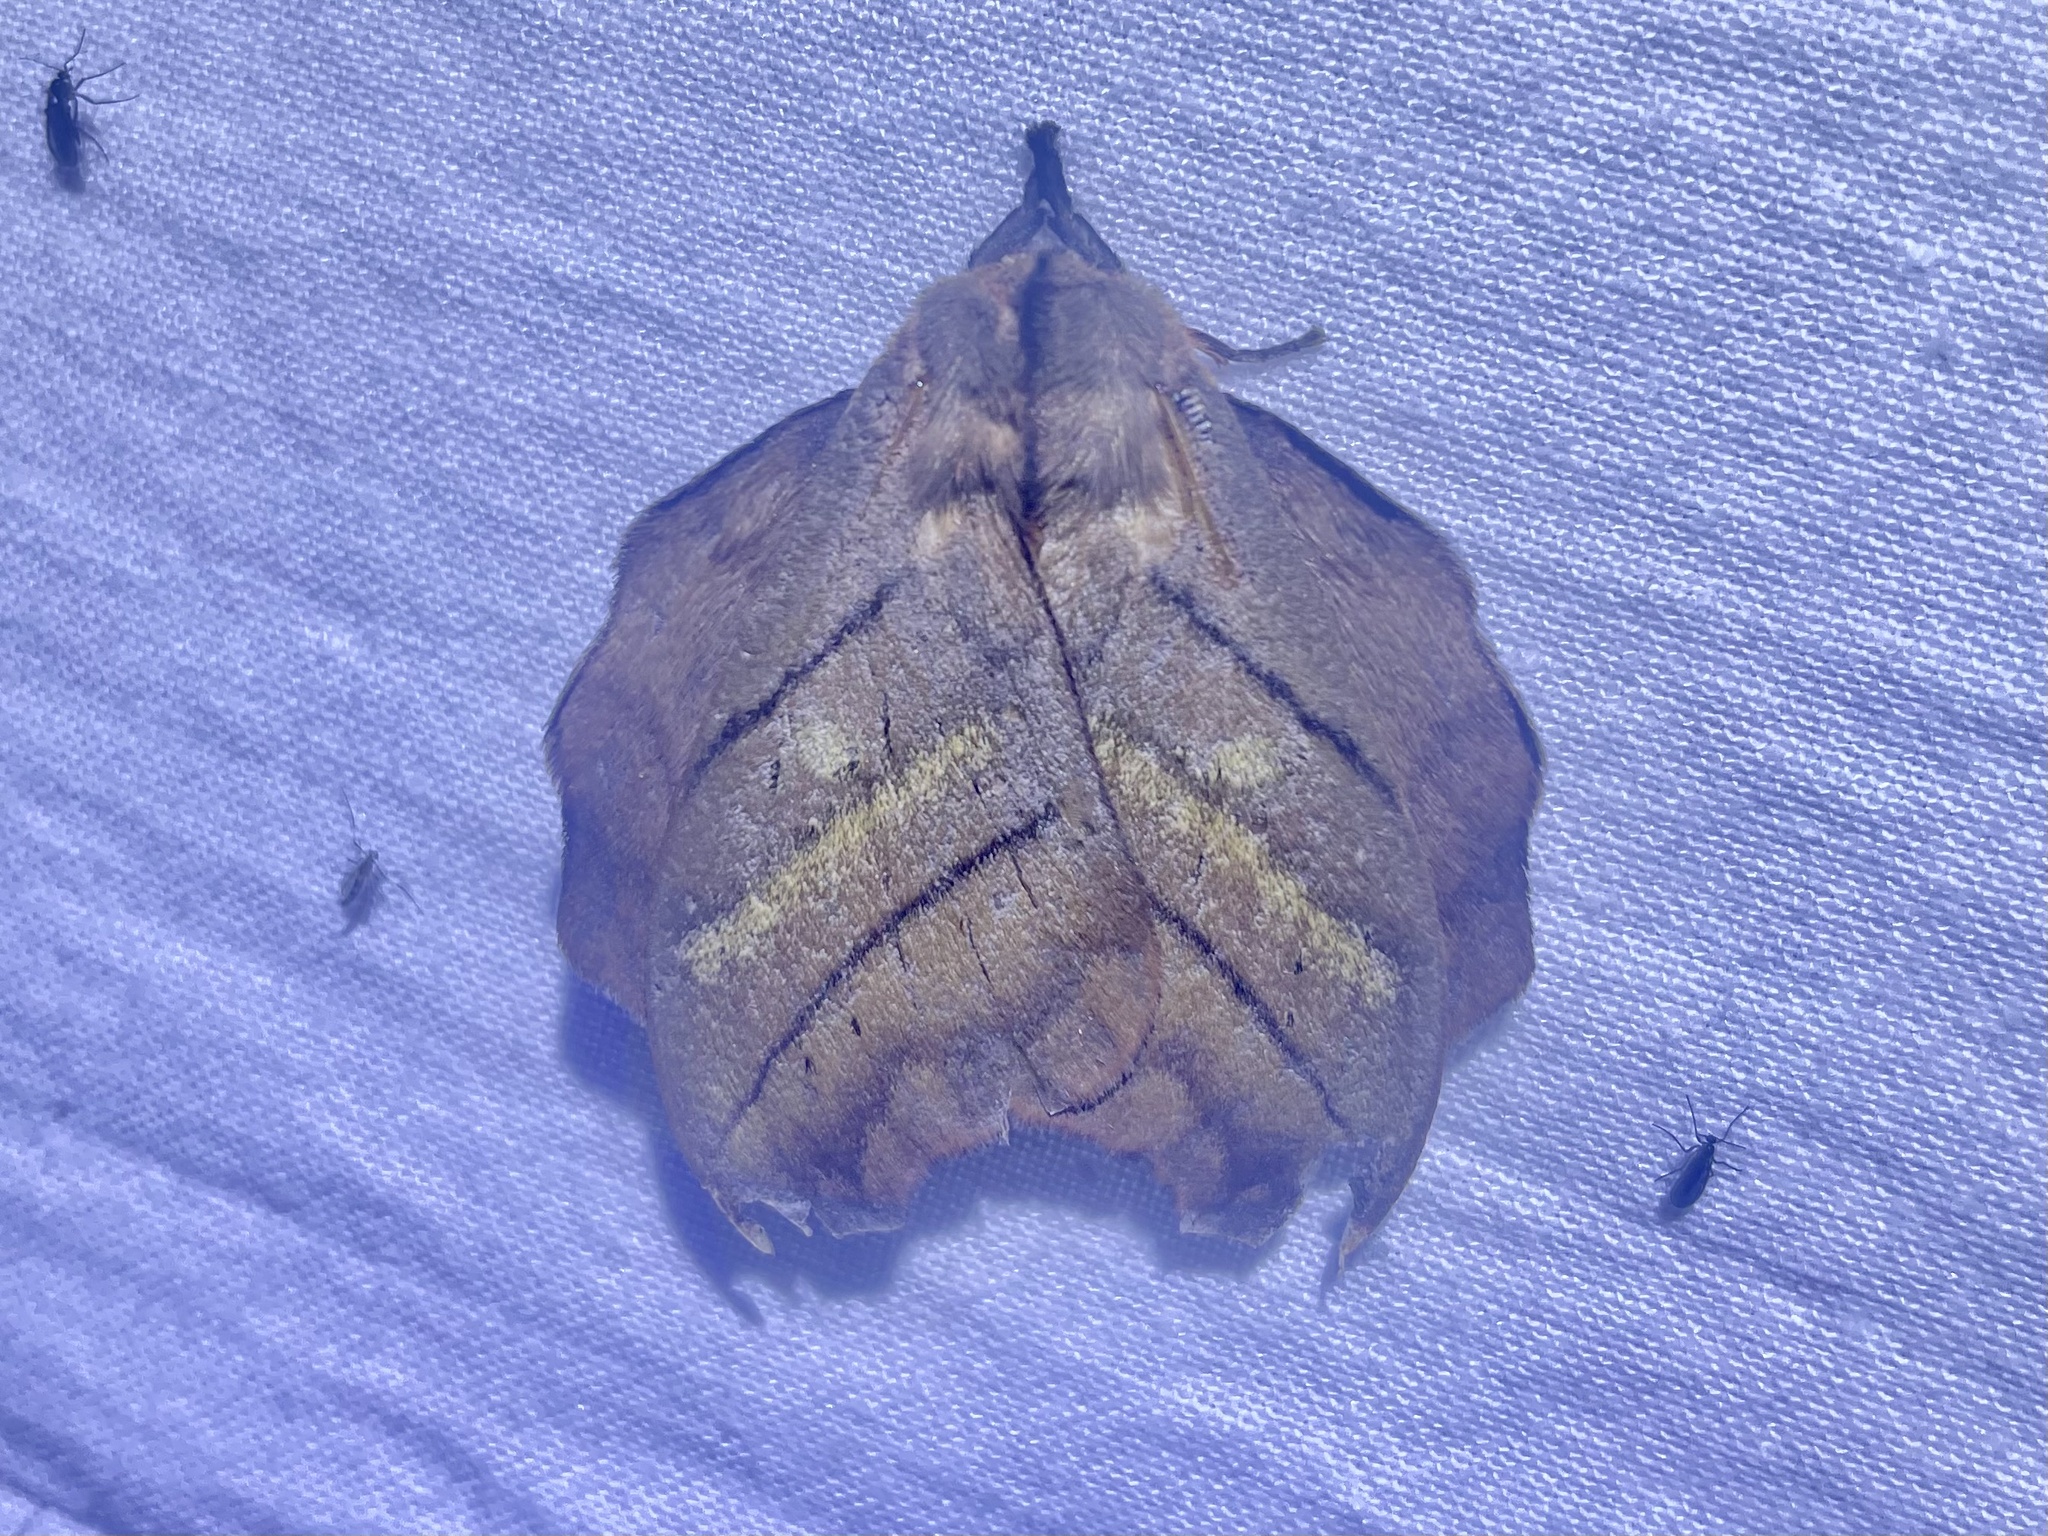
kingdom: Animalia
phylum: Arthropoda
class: Insecta
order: Lepidoptera
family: Saturniidae
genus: Hyperchiria
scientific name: Hyperchiria nausica
